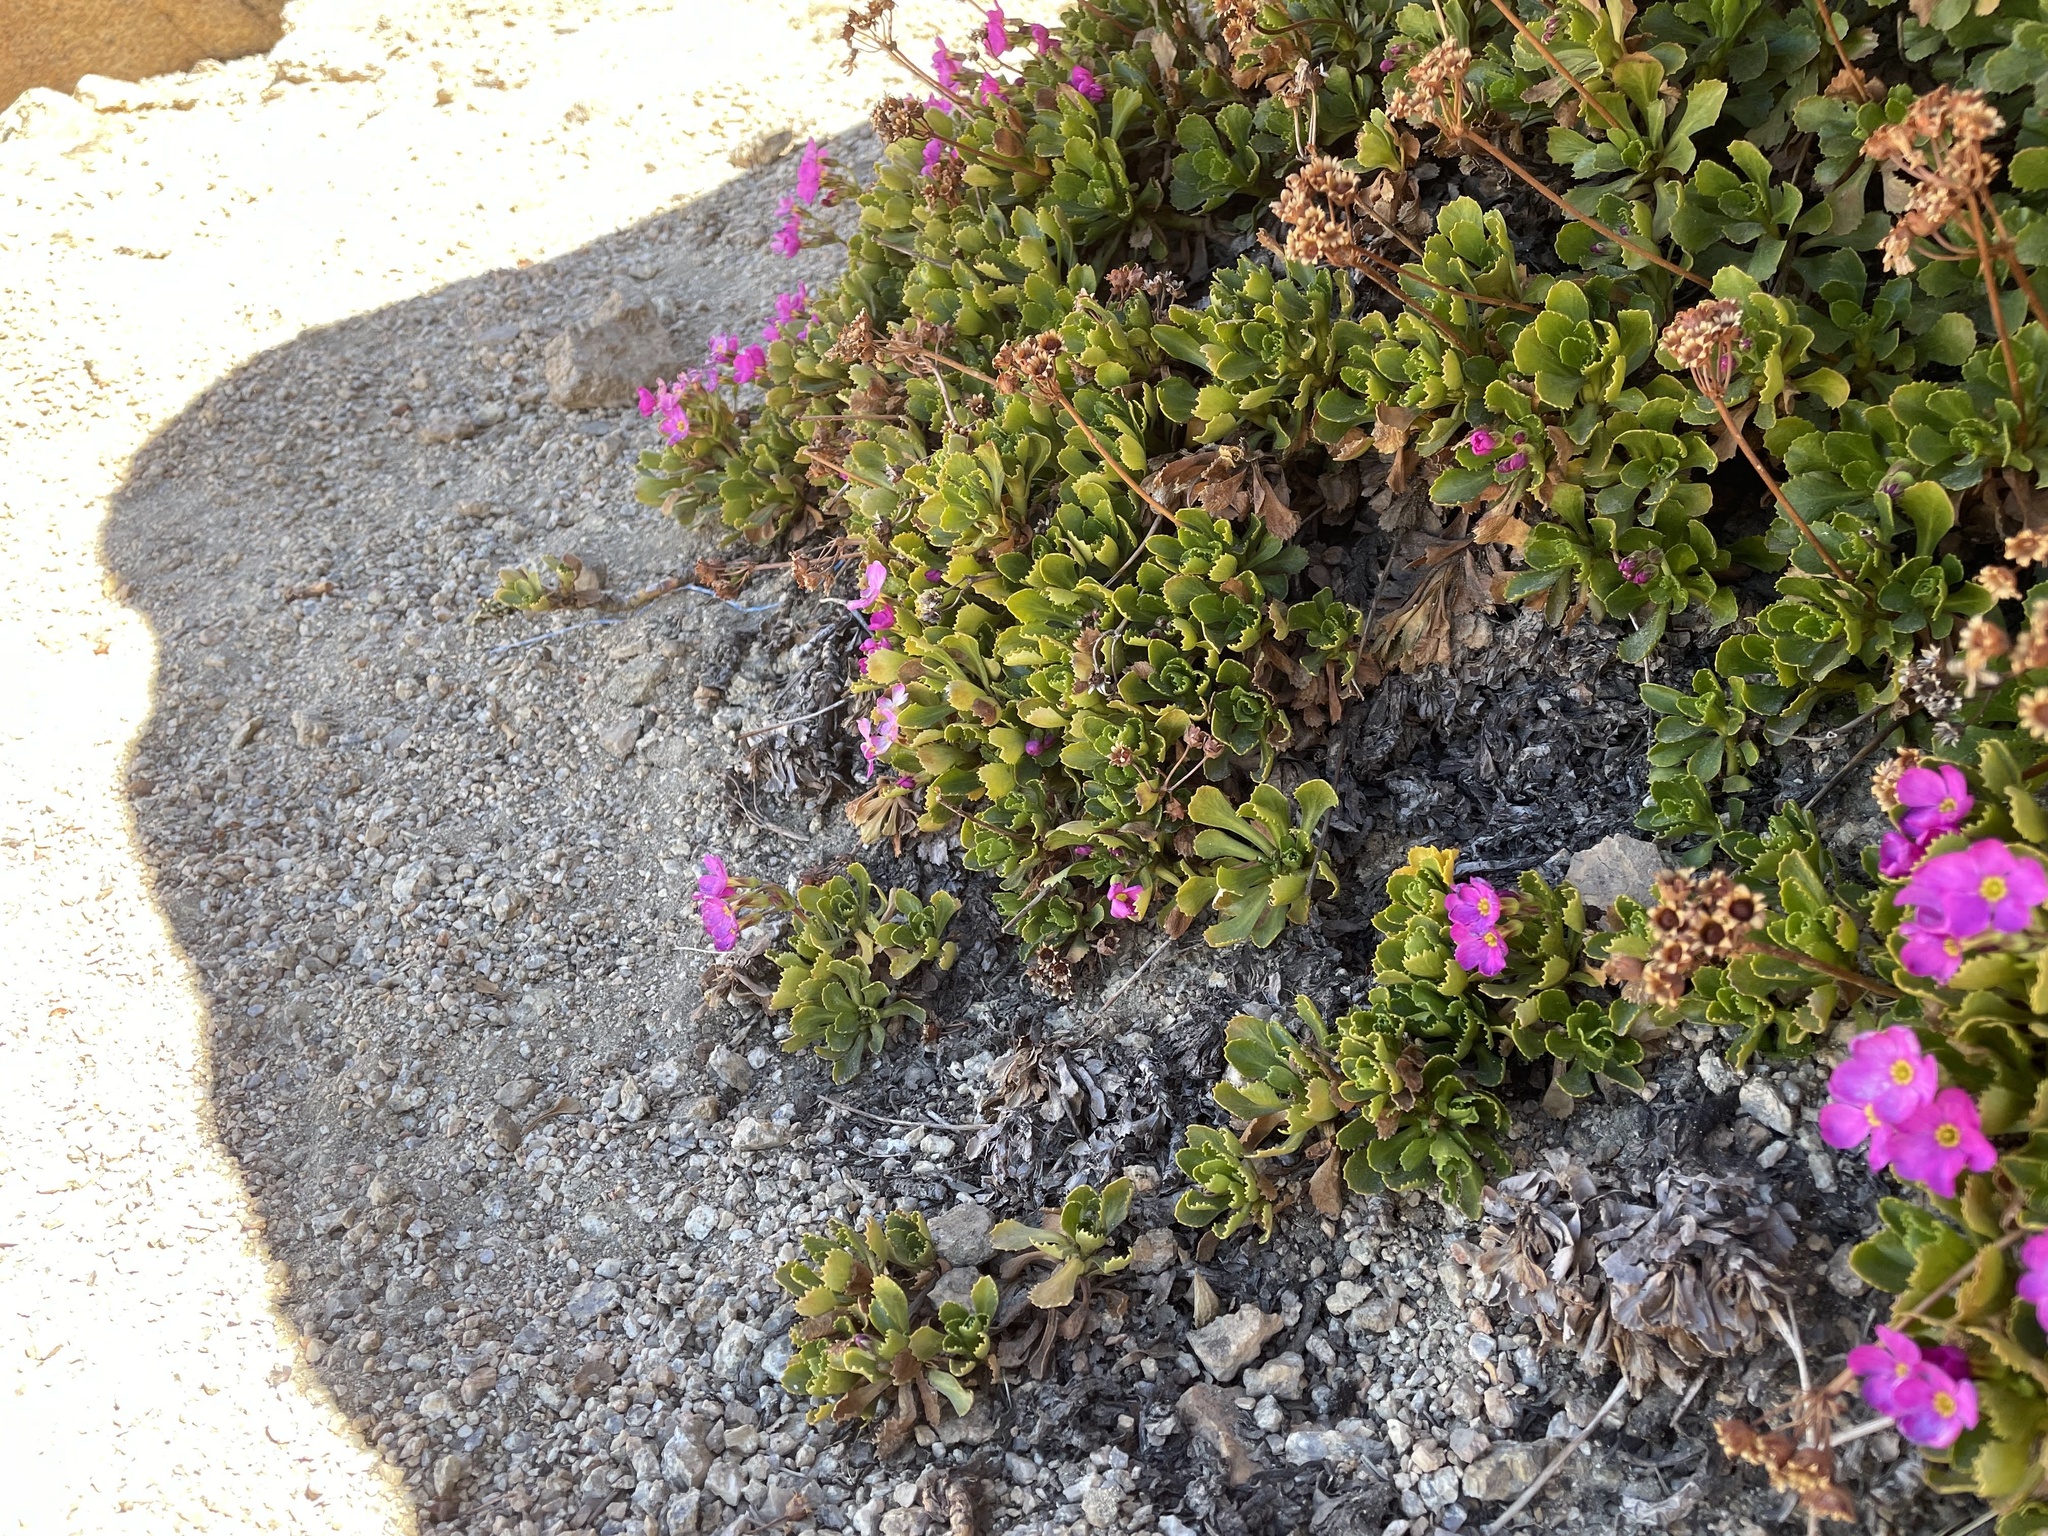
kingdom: Plantae
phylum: Tracheophyta
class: Magnoliopsida
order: Ericales
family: Primulaceae
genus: Primula
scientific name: Primula suffrutescens
